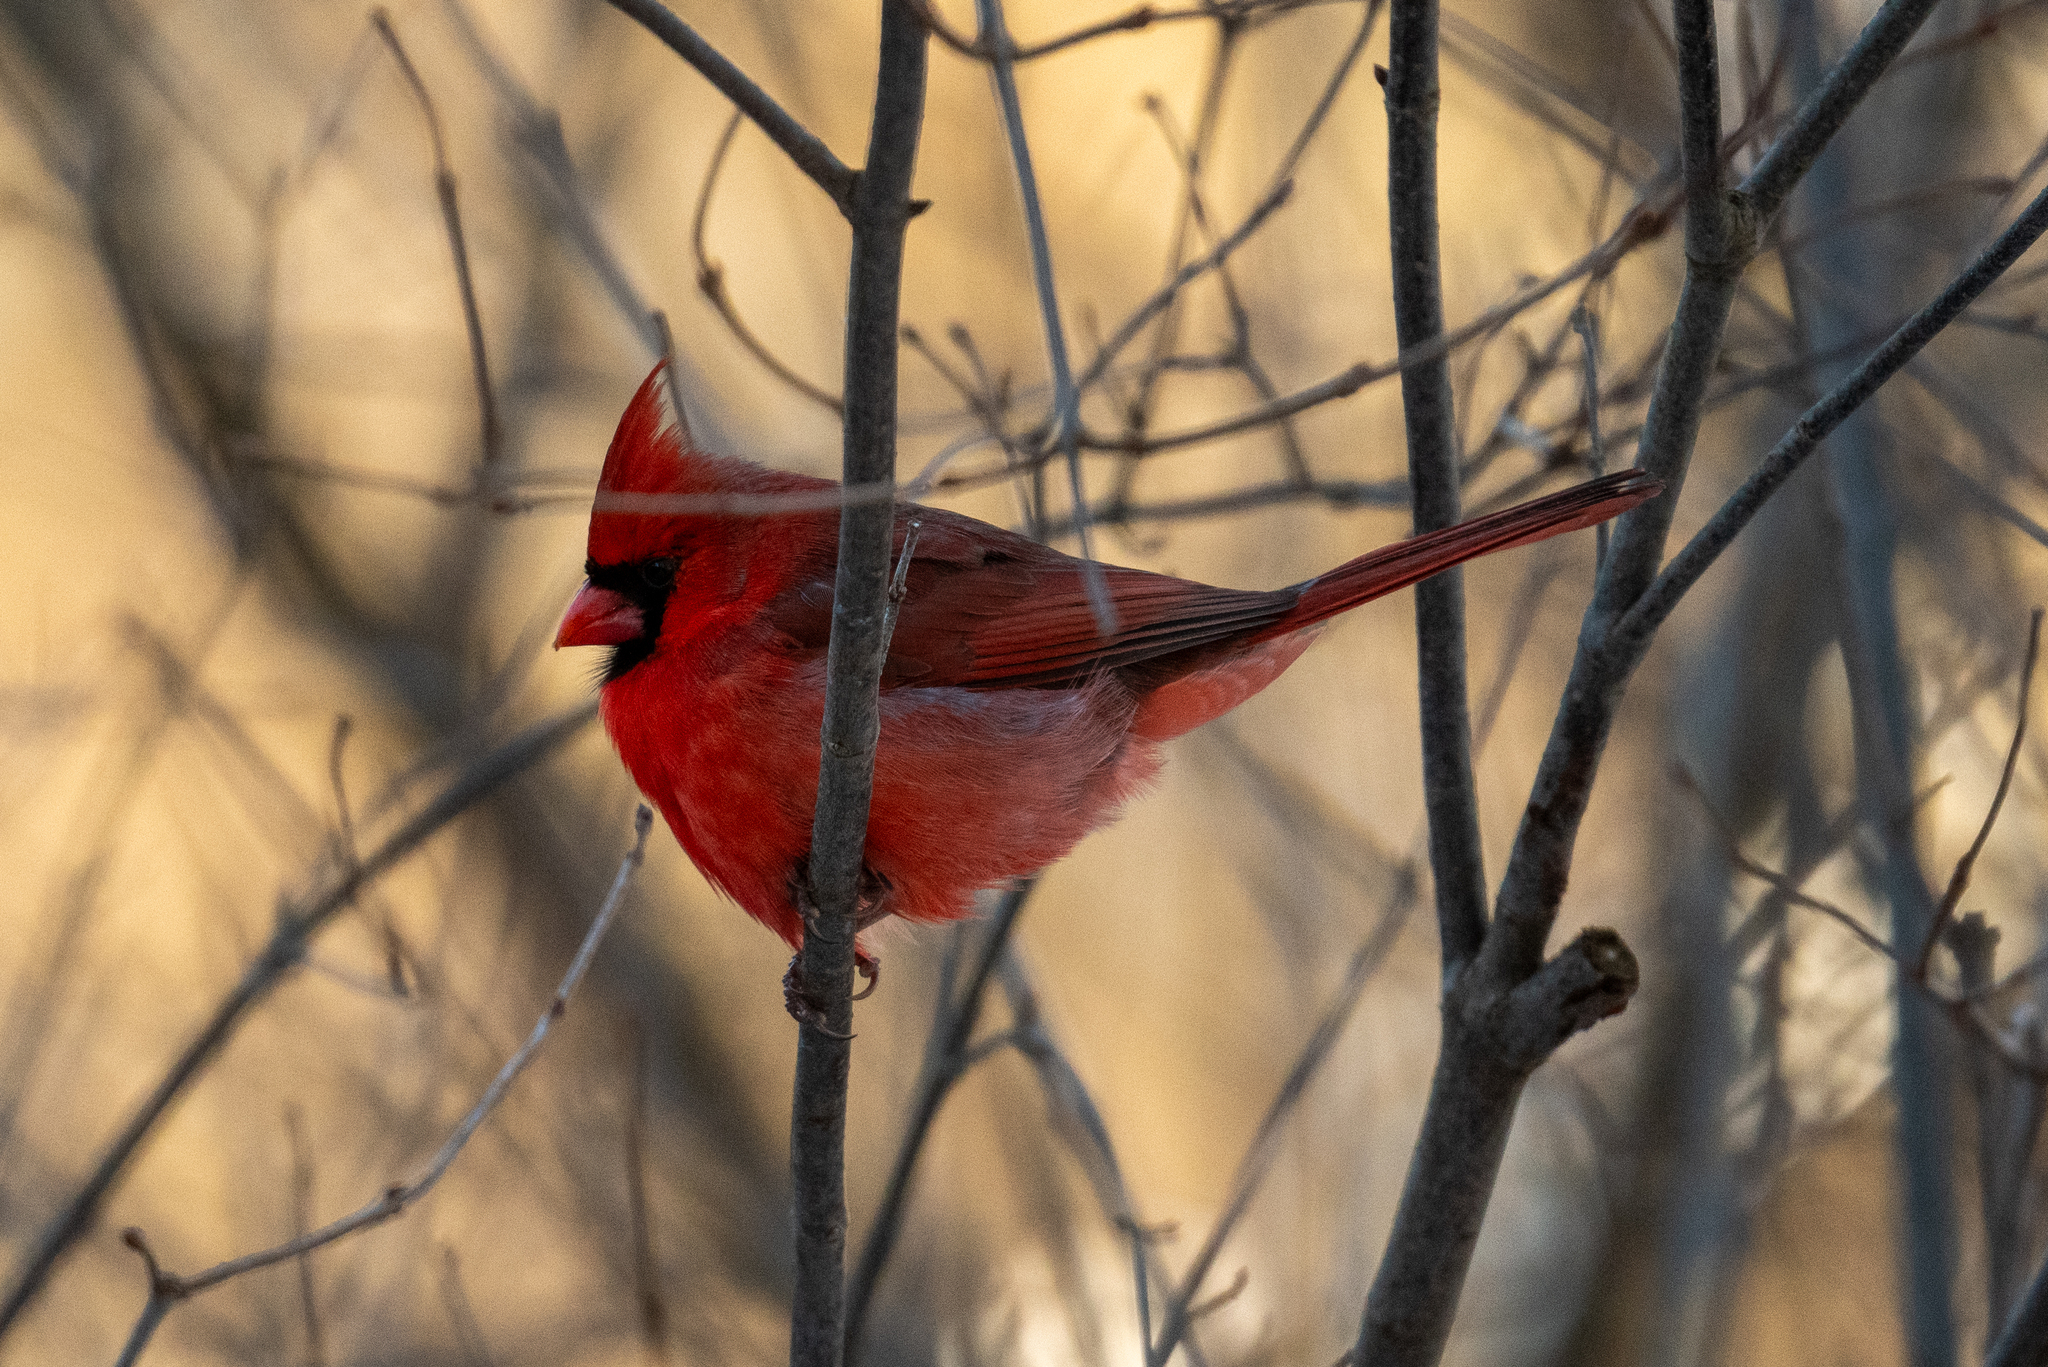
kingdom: Animalia
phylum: Chordata
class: Aves
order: Passeriformes
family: Cardinalidae
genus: Cardinalis
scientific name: Cardinalis cardinalis
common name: Northern cardinal
